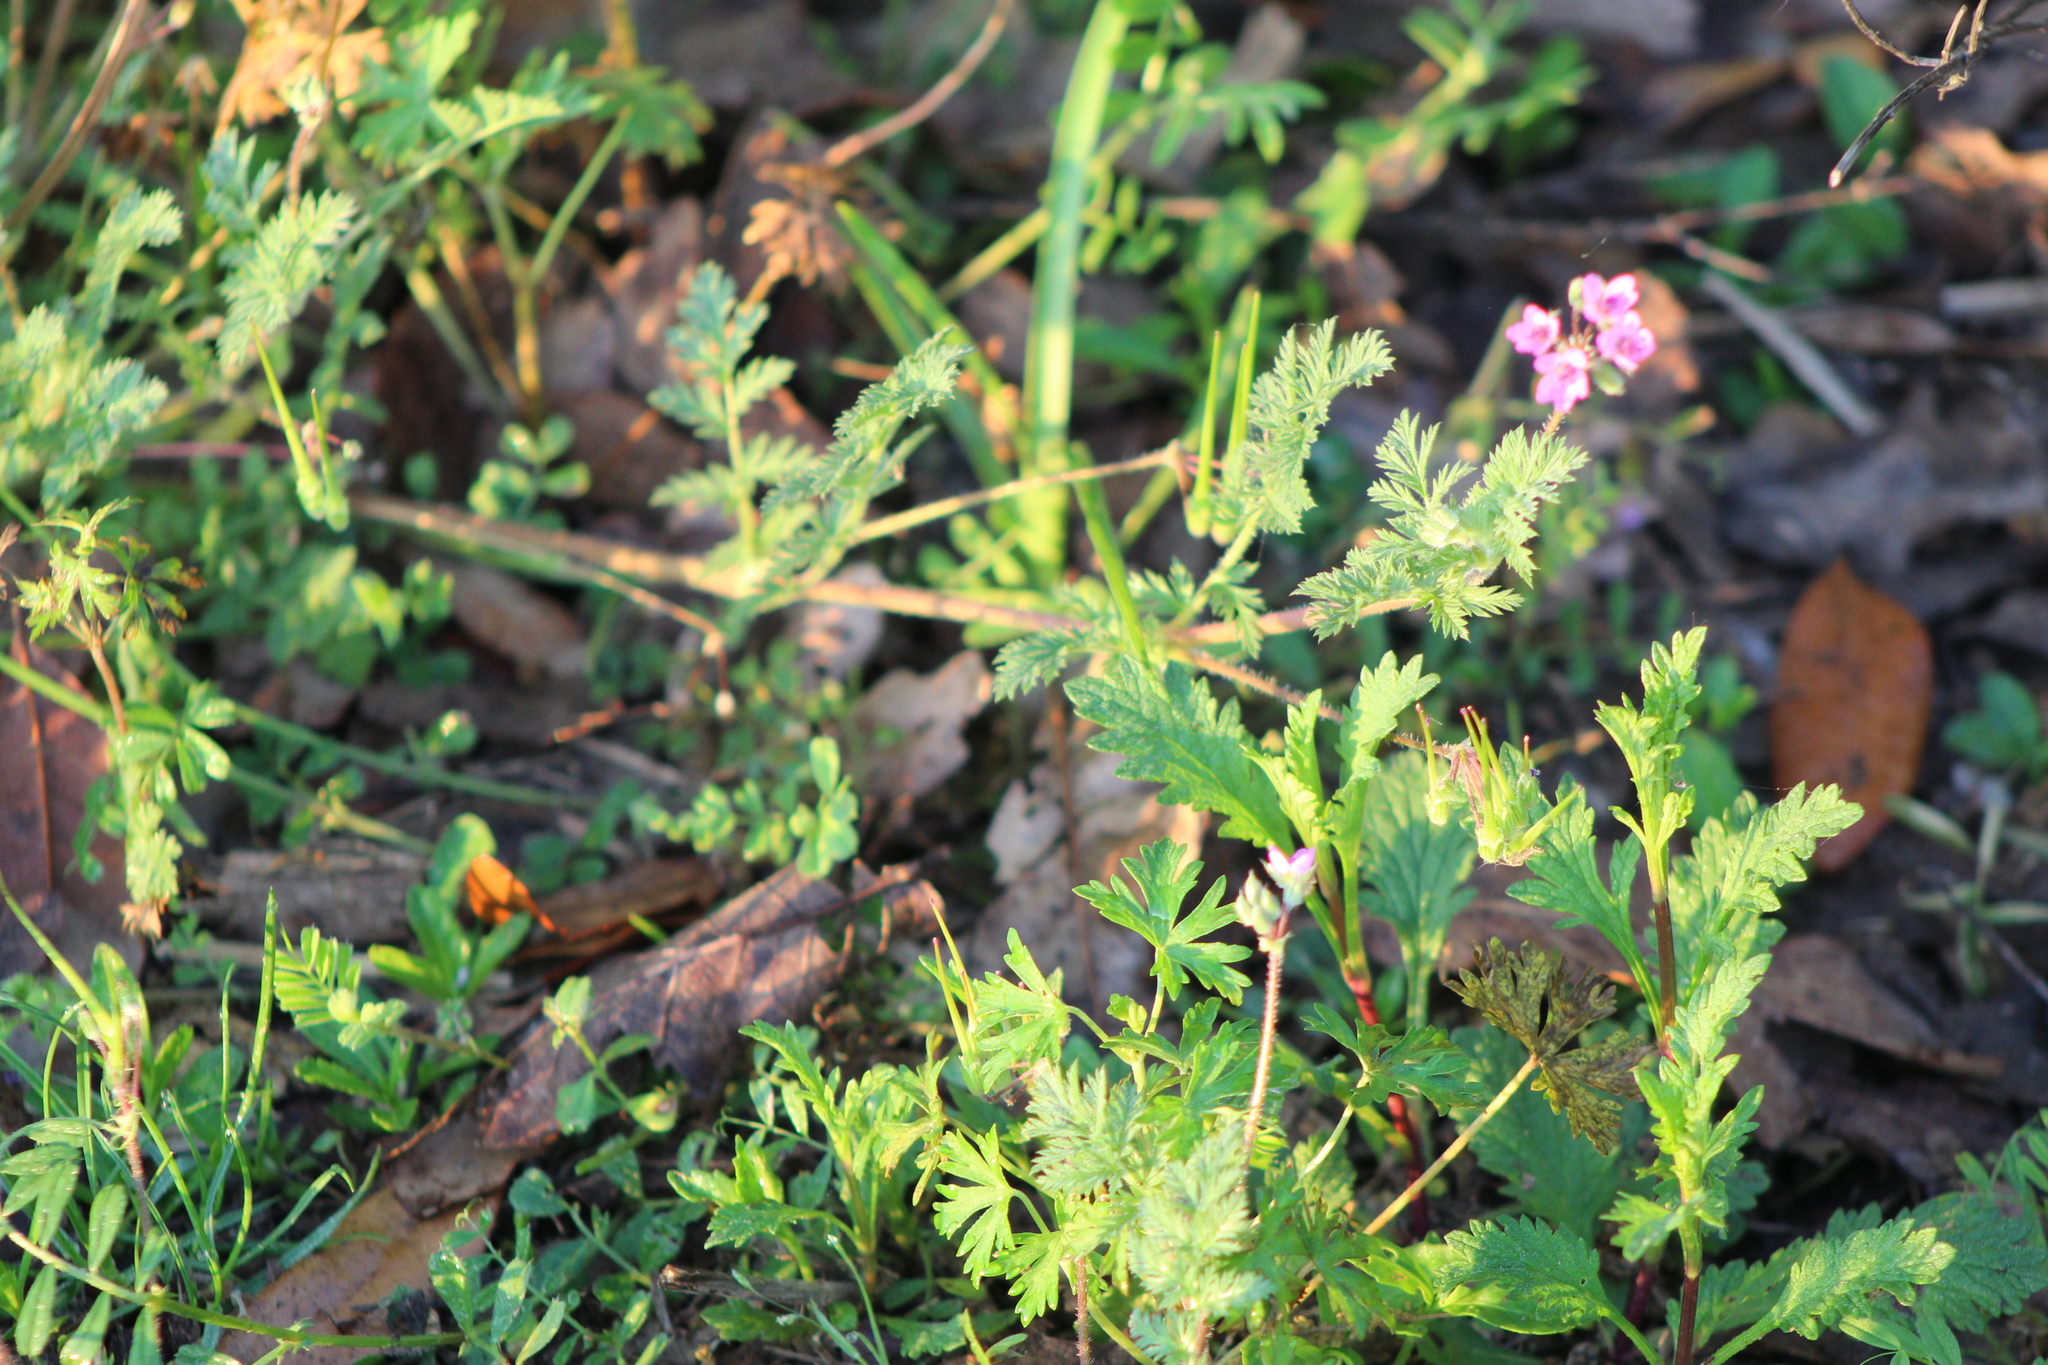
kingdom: Plantae
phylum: Tracheophyta
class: Magnoliopsida
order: Geraniales
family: Geraniaceae
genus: Erodium
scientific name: Erodium cicutarium
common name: Common stork's-bill
